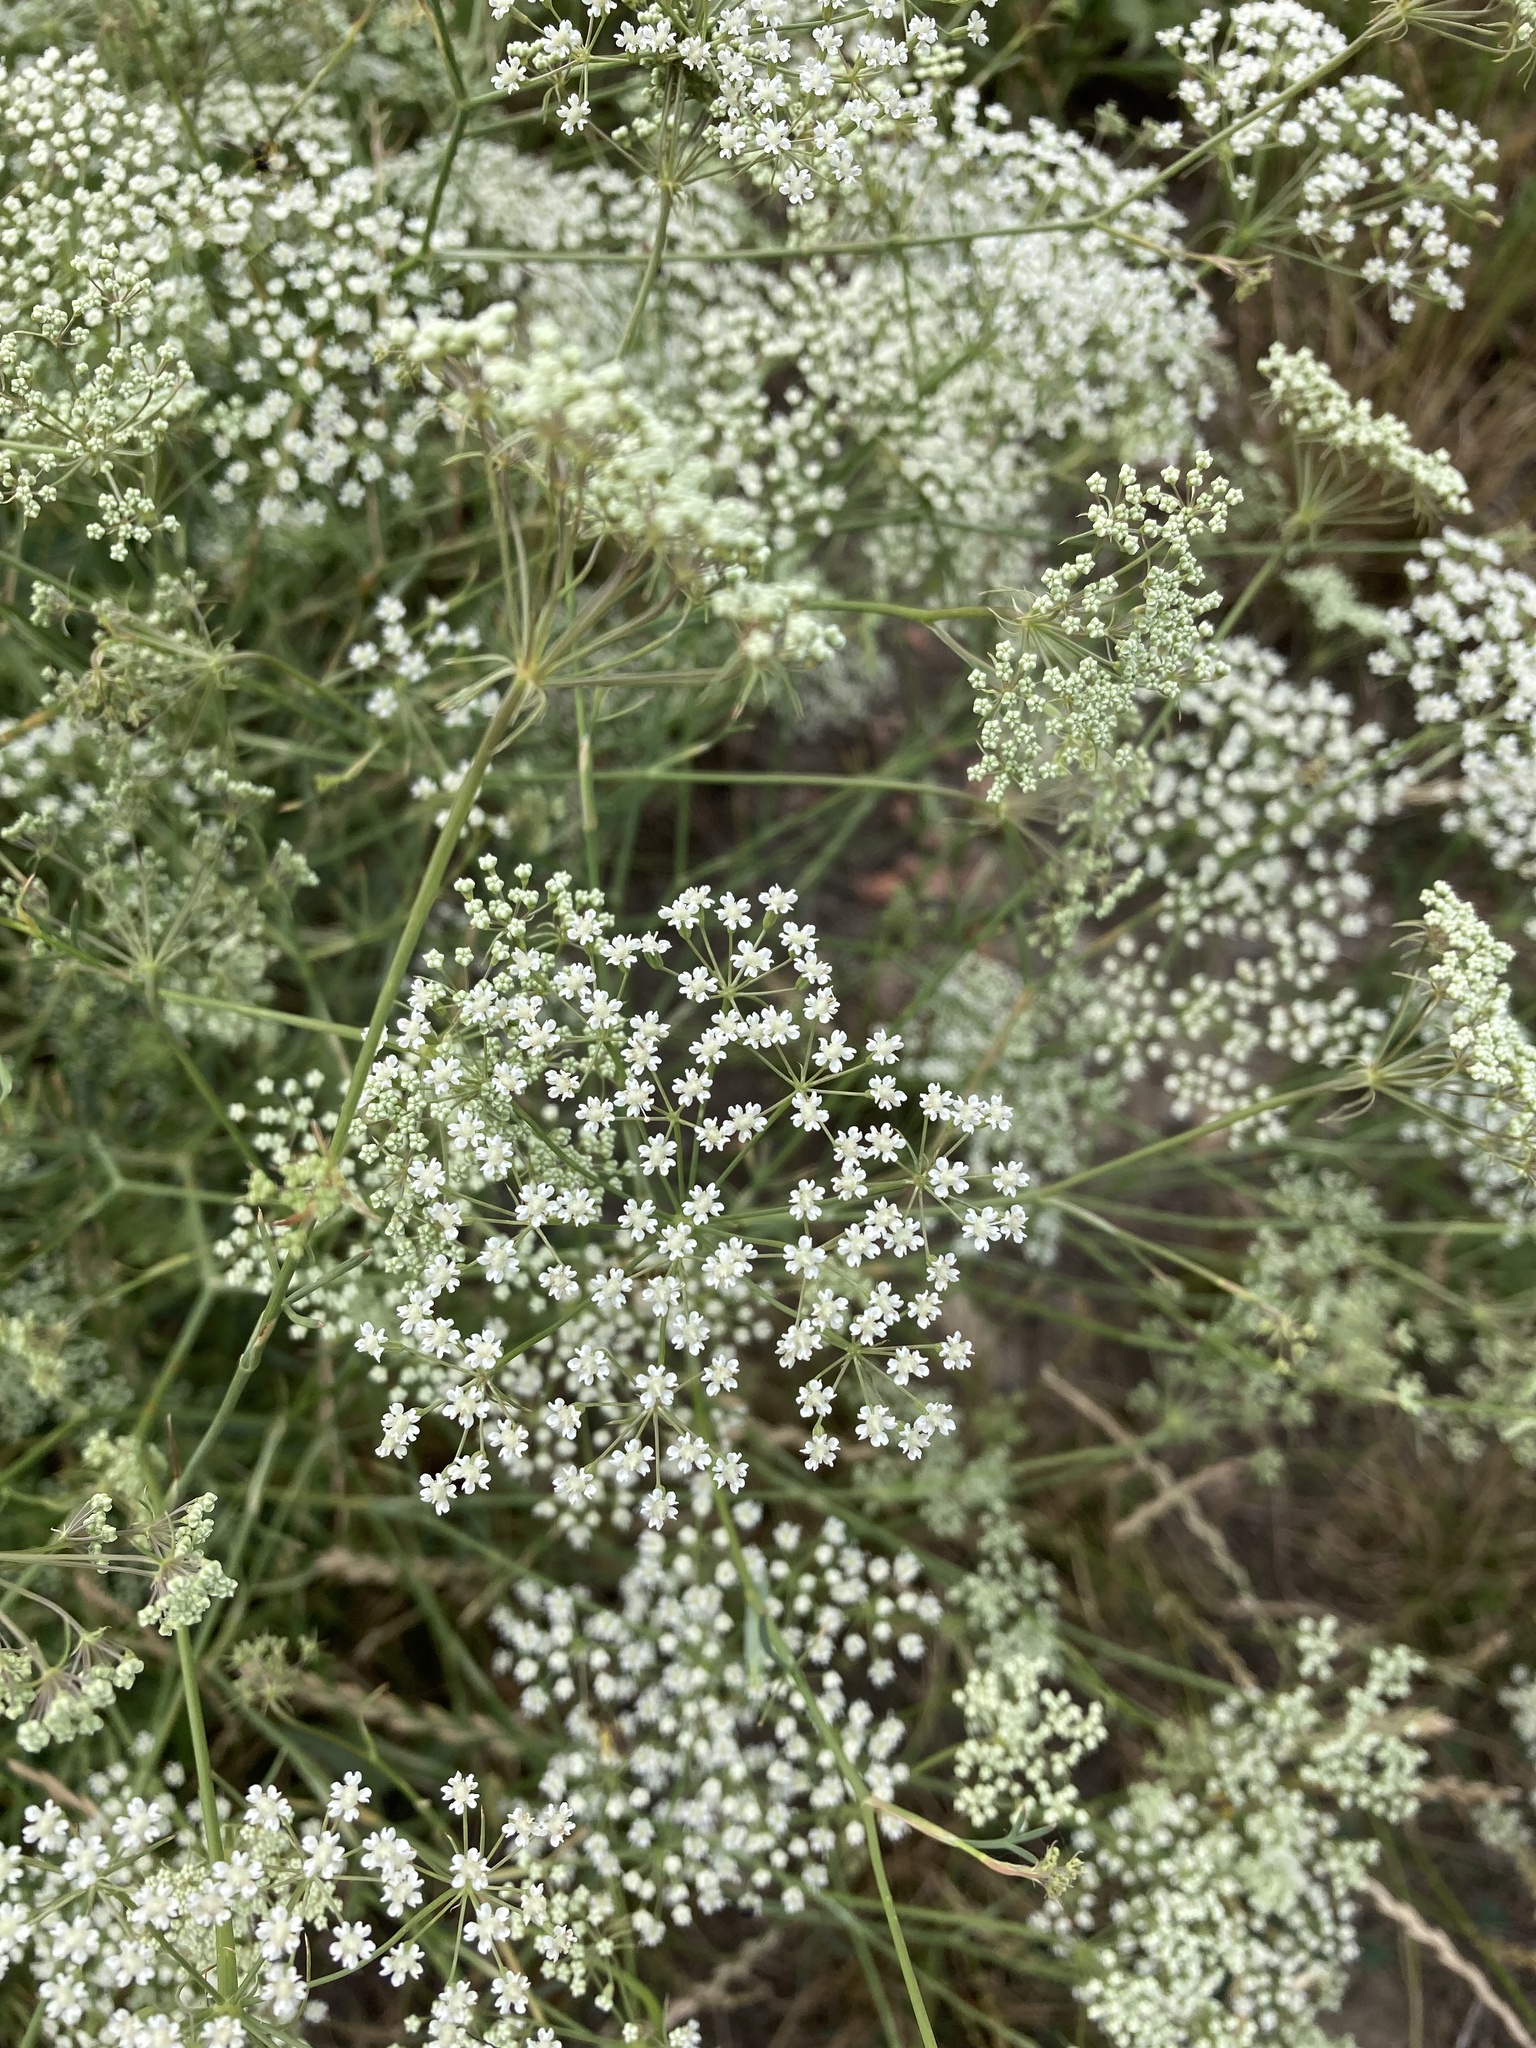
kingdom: Plantae
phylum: Tracheophyta
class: Magnoliopsida
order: Apiales
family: Apiaceae
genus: Falcaria
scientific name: Falcaria vulgaris
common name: Longleaf
